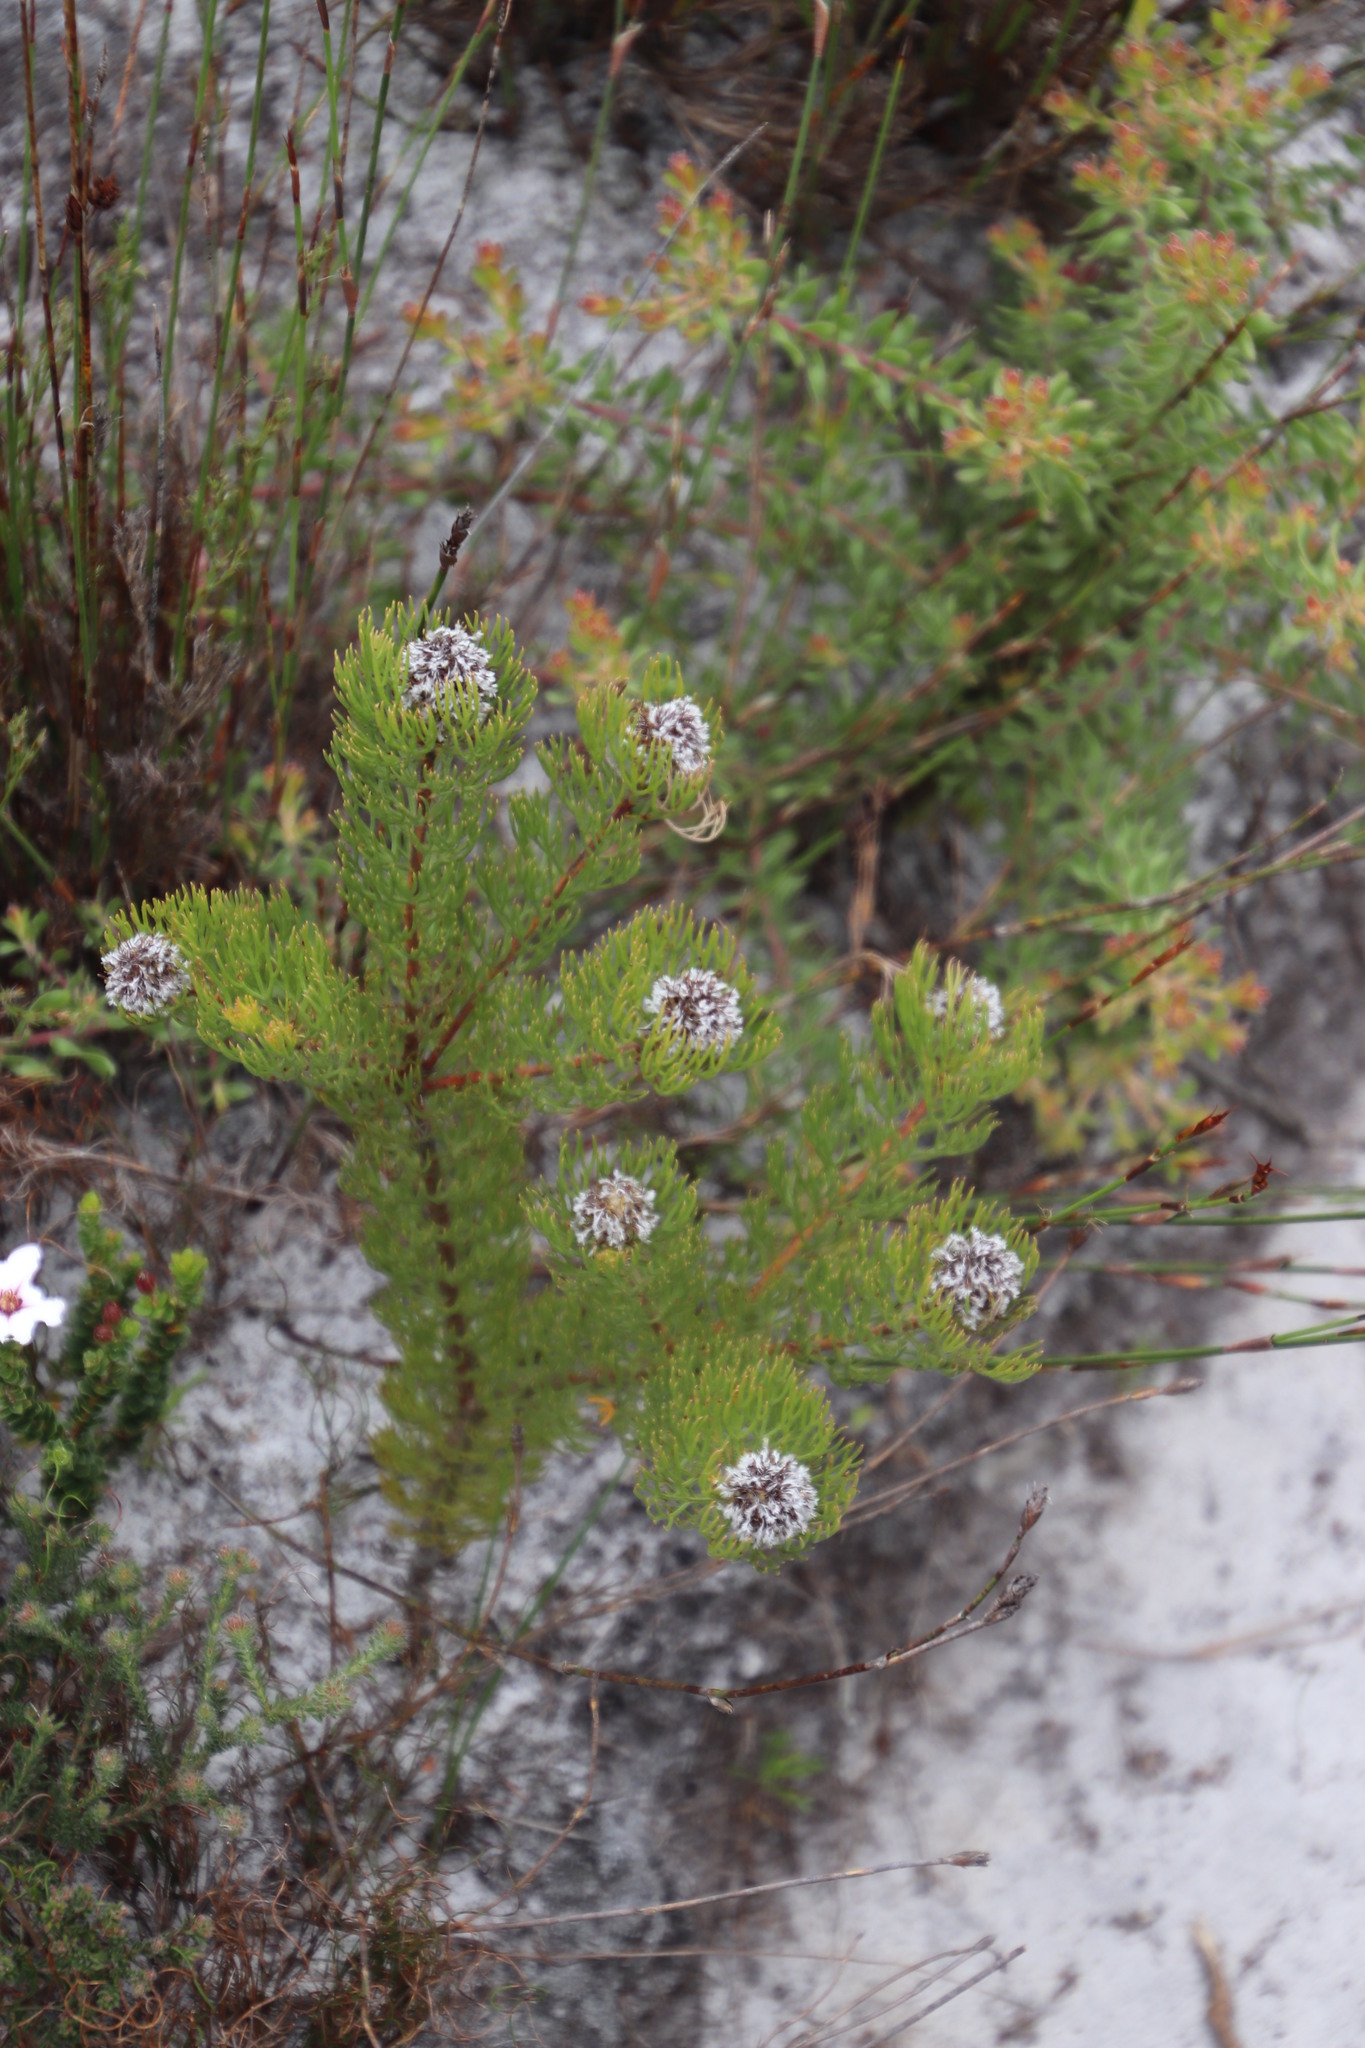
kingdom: Plantae
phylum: Tracheophyta
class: Magnoliopsida
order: Proteales
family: Proteaceae
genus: Serruria
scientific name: Serruria villosa
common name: Golden spiderhead
